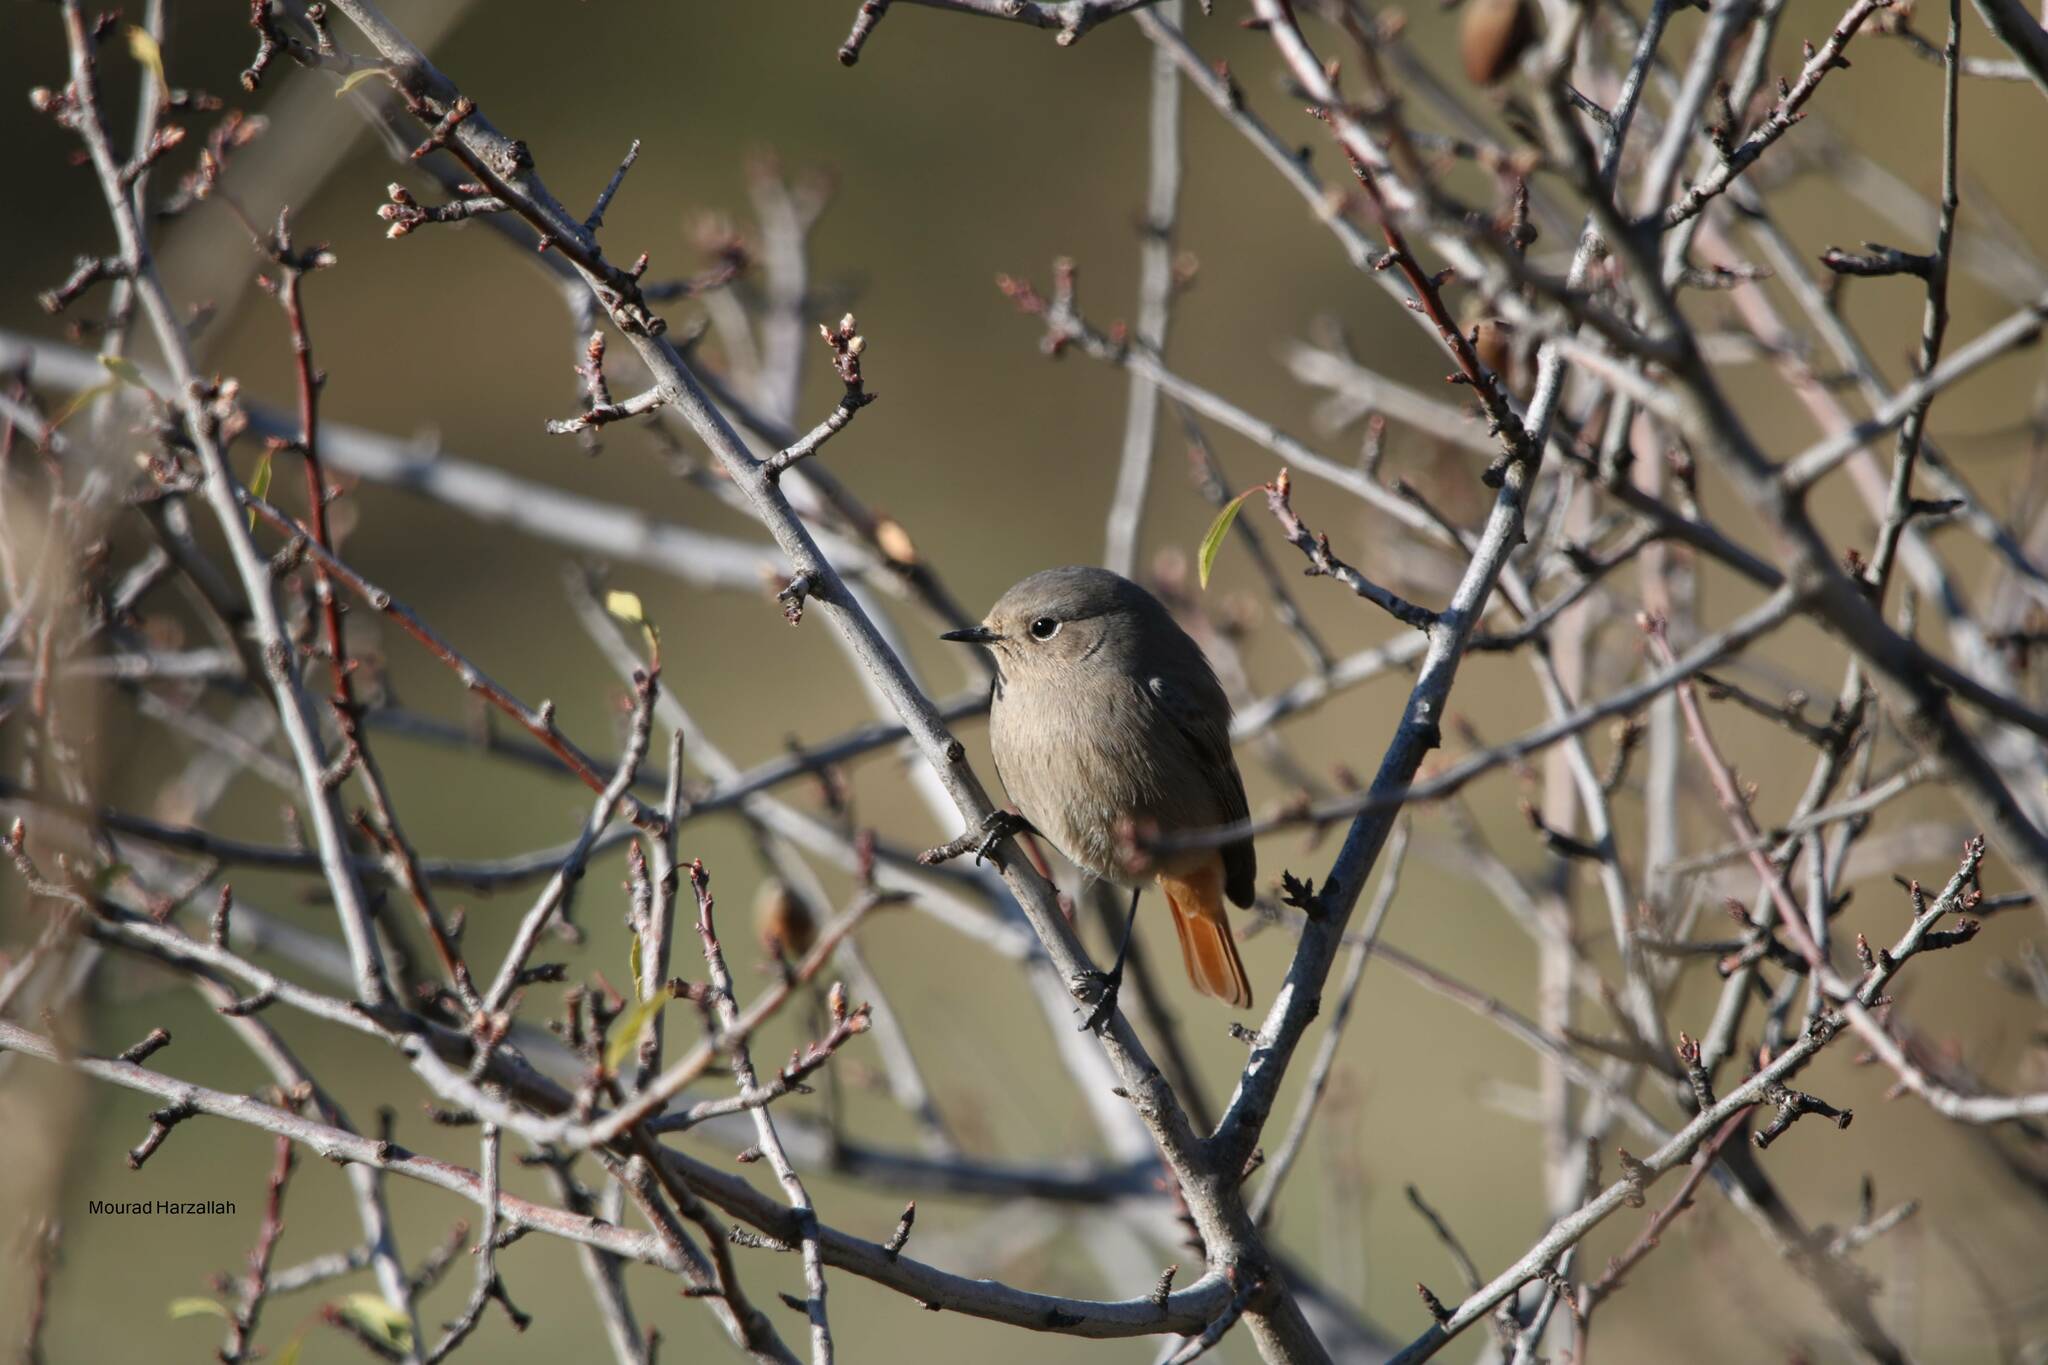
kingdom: Animalia
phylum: Chordata
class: Aves
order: Passeriformes
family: Muscicapidae
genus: Phoenicurus
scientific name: Phoenicurus ochruros
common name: Black redstart
